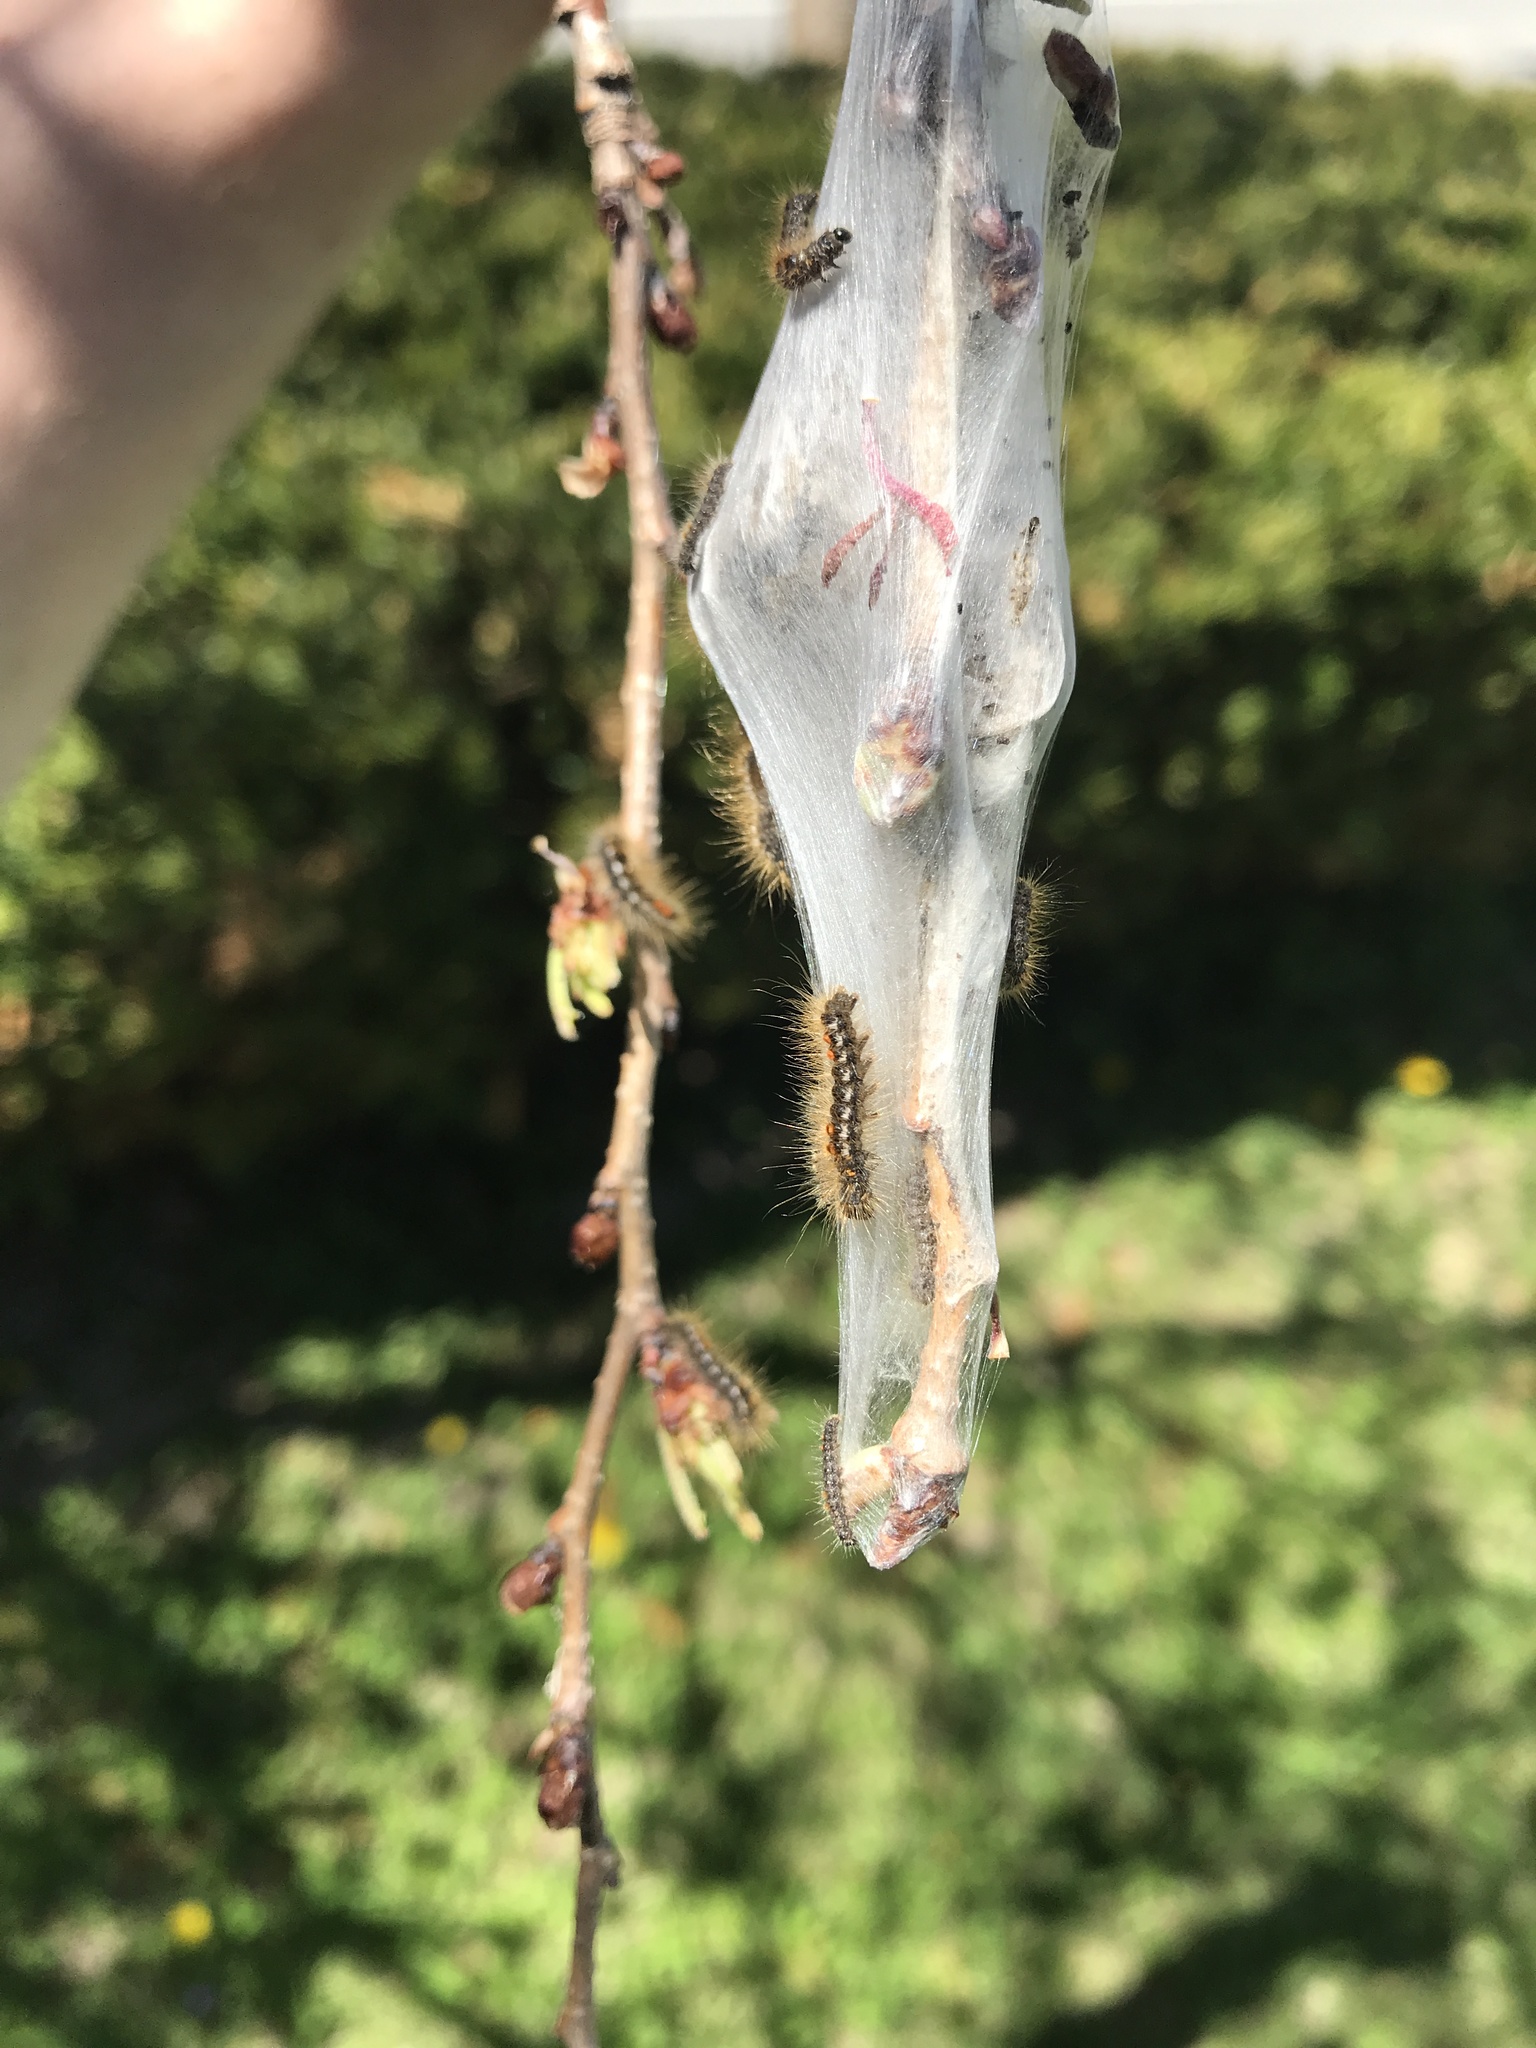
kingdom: Animalia
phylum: Arthropoda
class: Insecta
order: Lepidoptera
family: Erebidae
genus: Euproctis
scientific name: Euproctis chrysorrhoea
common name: Brown-tail
